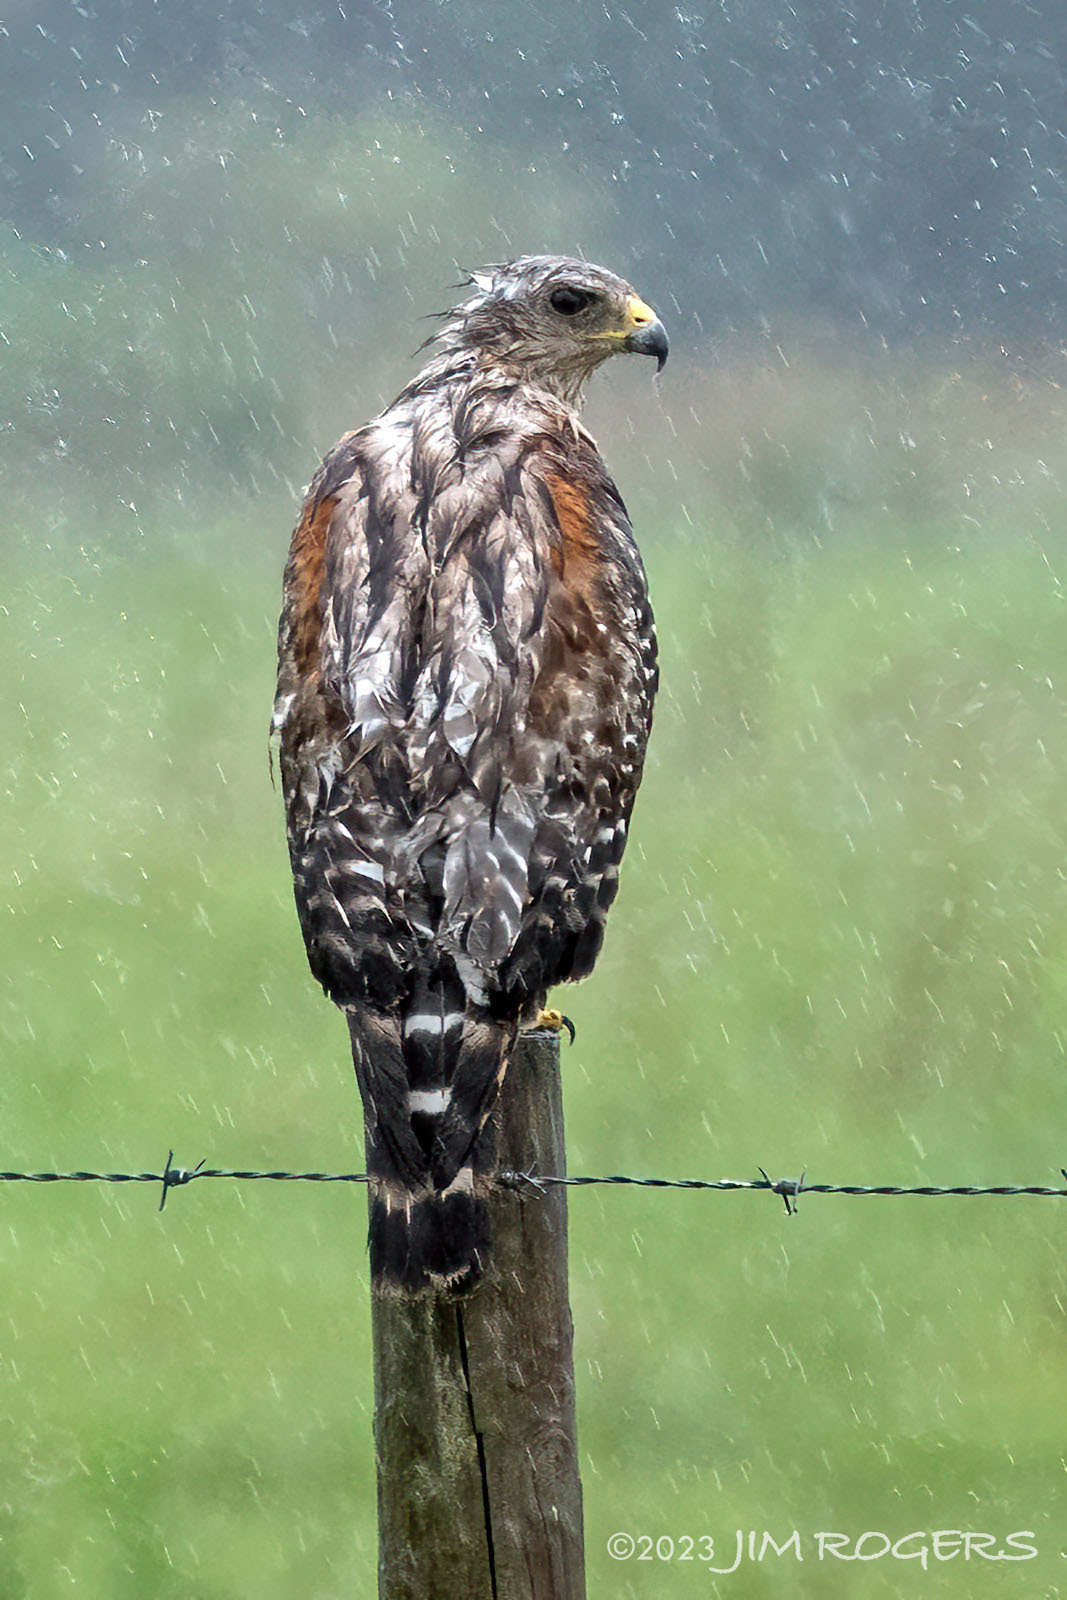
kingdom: Animalia
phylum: Chordata
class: Aves
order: Accipitriformes
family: Accipitridae
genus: Buteo
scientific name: Buteo lineatus
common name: Red-shouldered hawk
